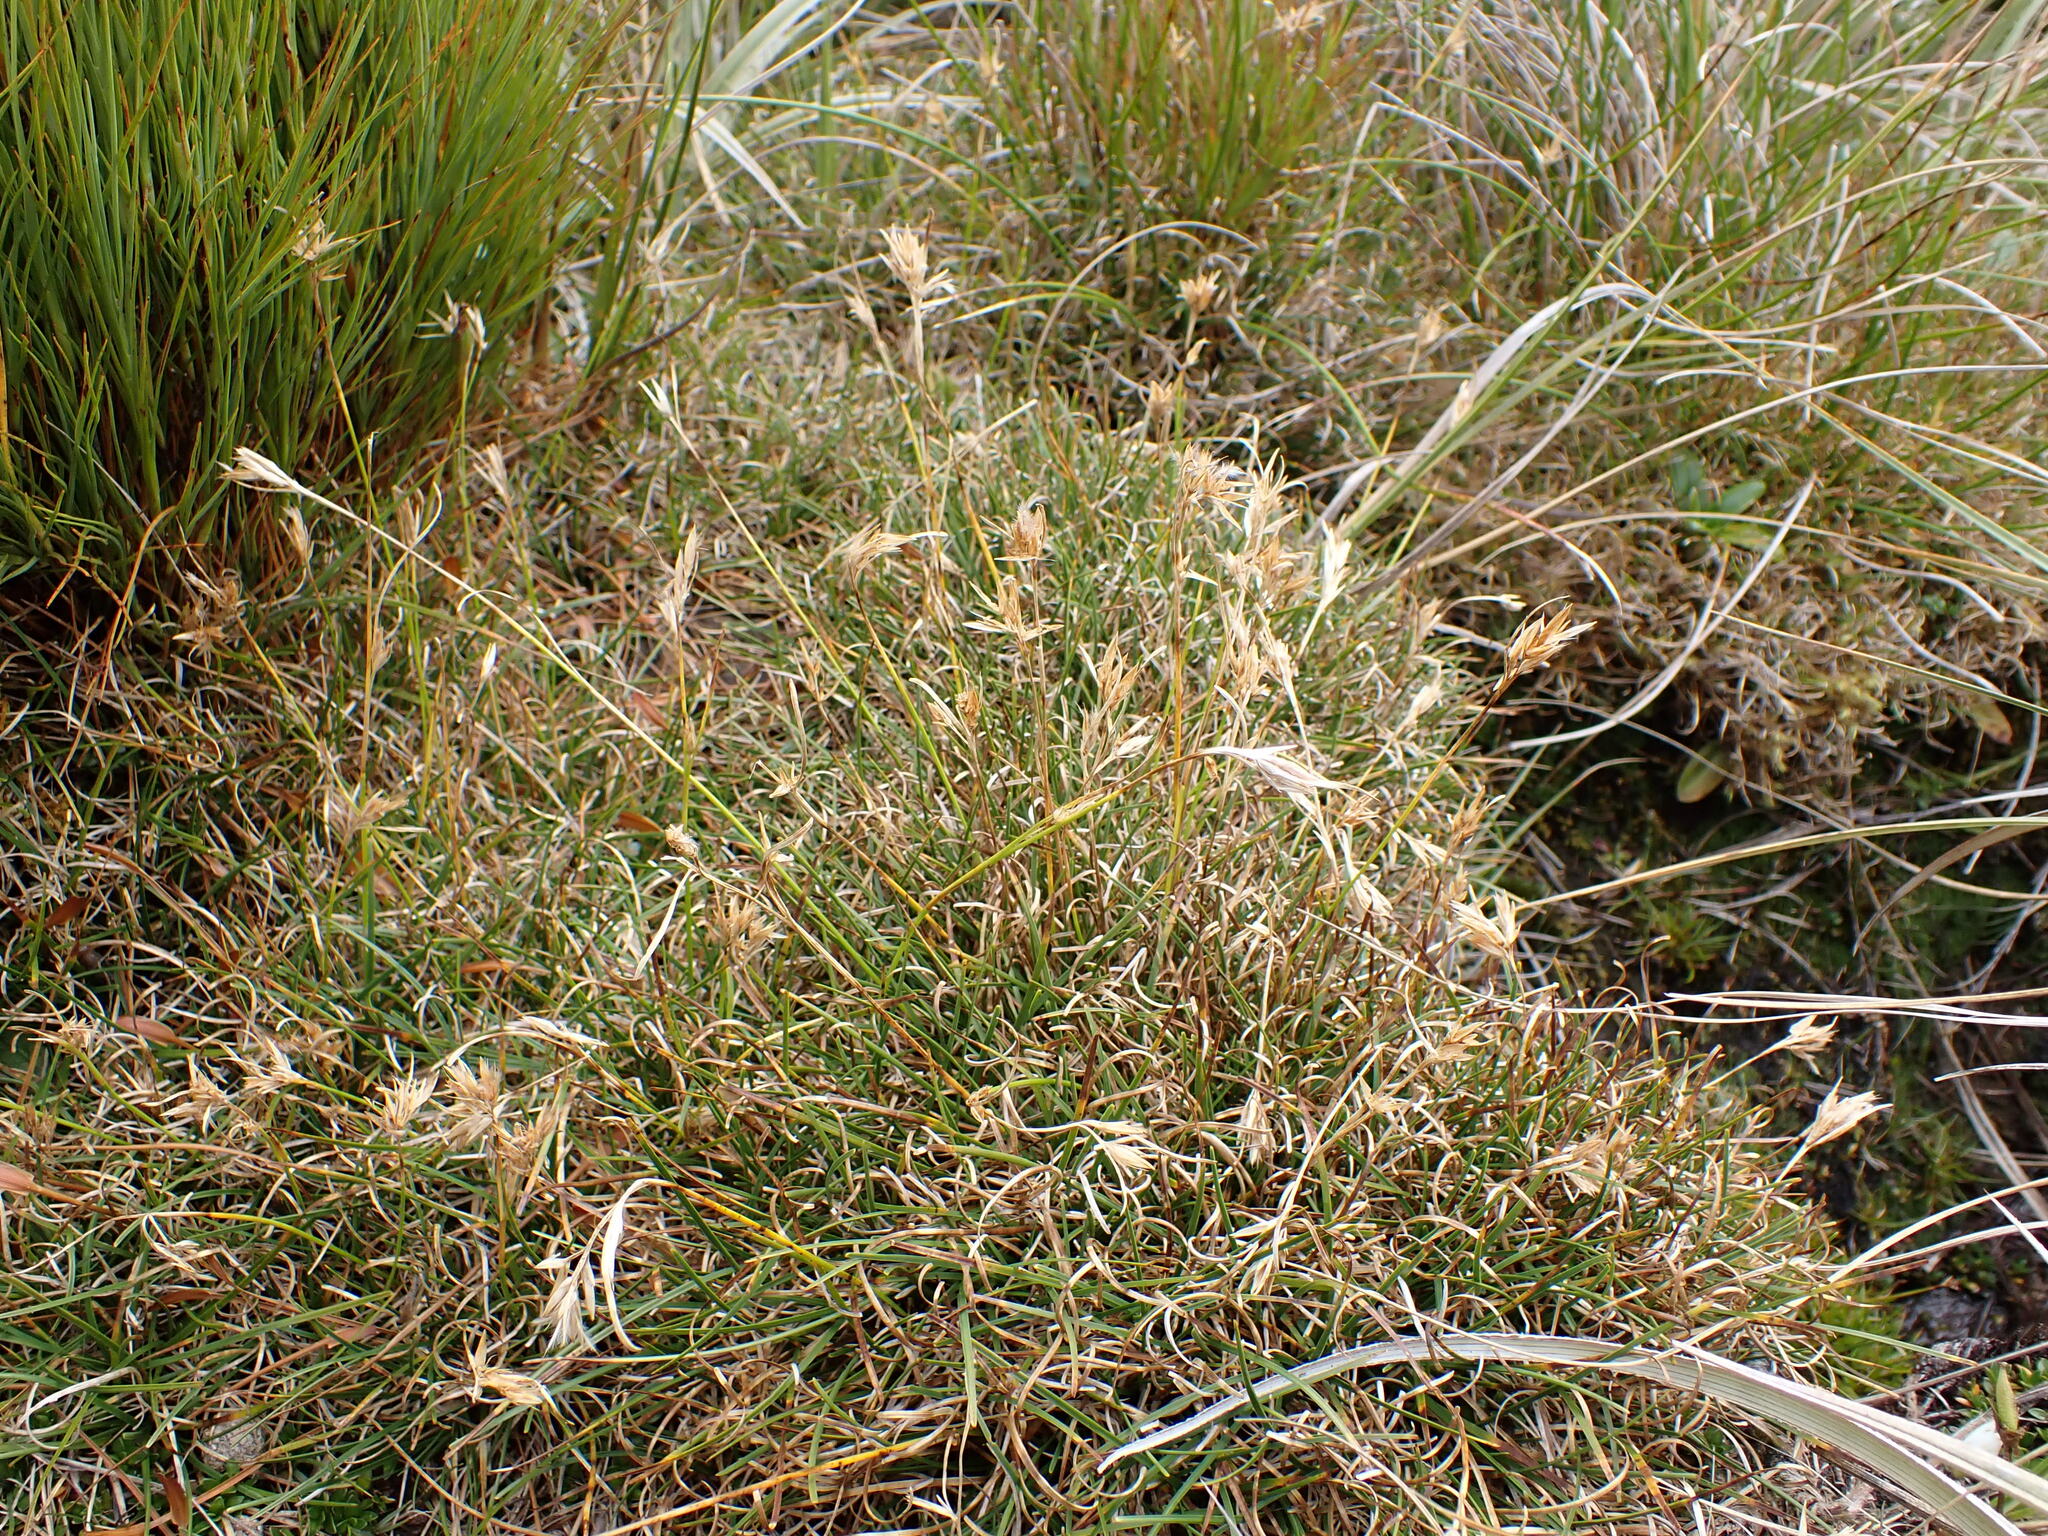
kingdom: Plantae
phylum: Tracheophyta
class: Liliopsida
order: Poales
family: Cyperaceae
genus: Carpha
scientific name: Carpha alpina
